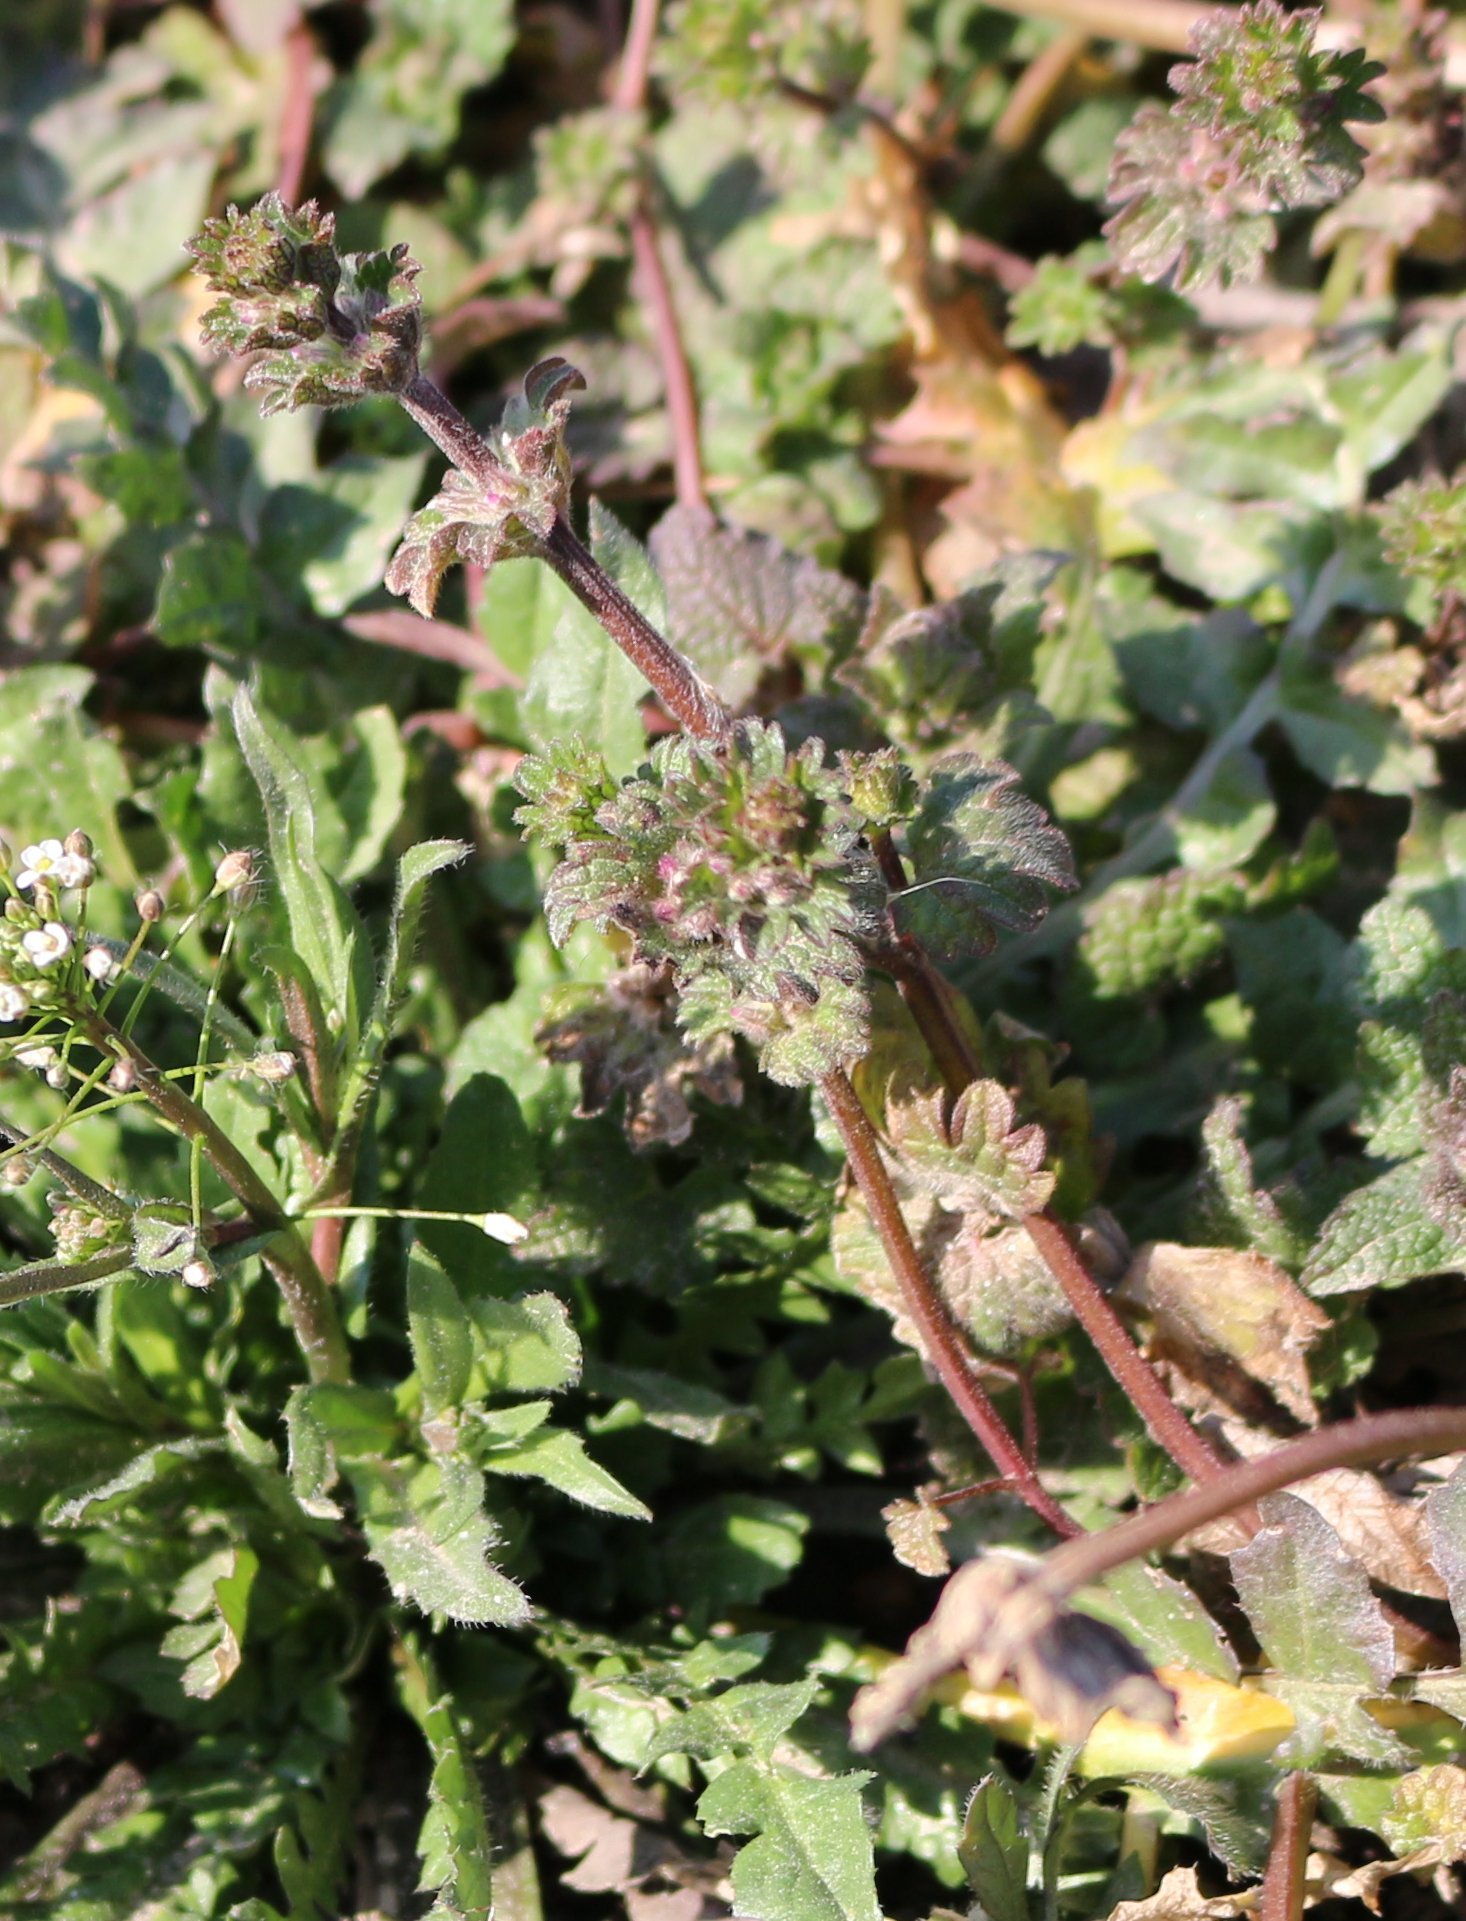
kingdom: Plantae
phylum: Tracheophyta
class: Magnoliopsida
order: Lamiales
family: Lamiaceae
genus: Lamium
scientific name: Lamium amplexicaule
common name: Henbit dead-nettle
